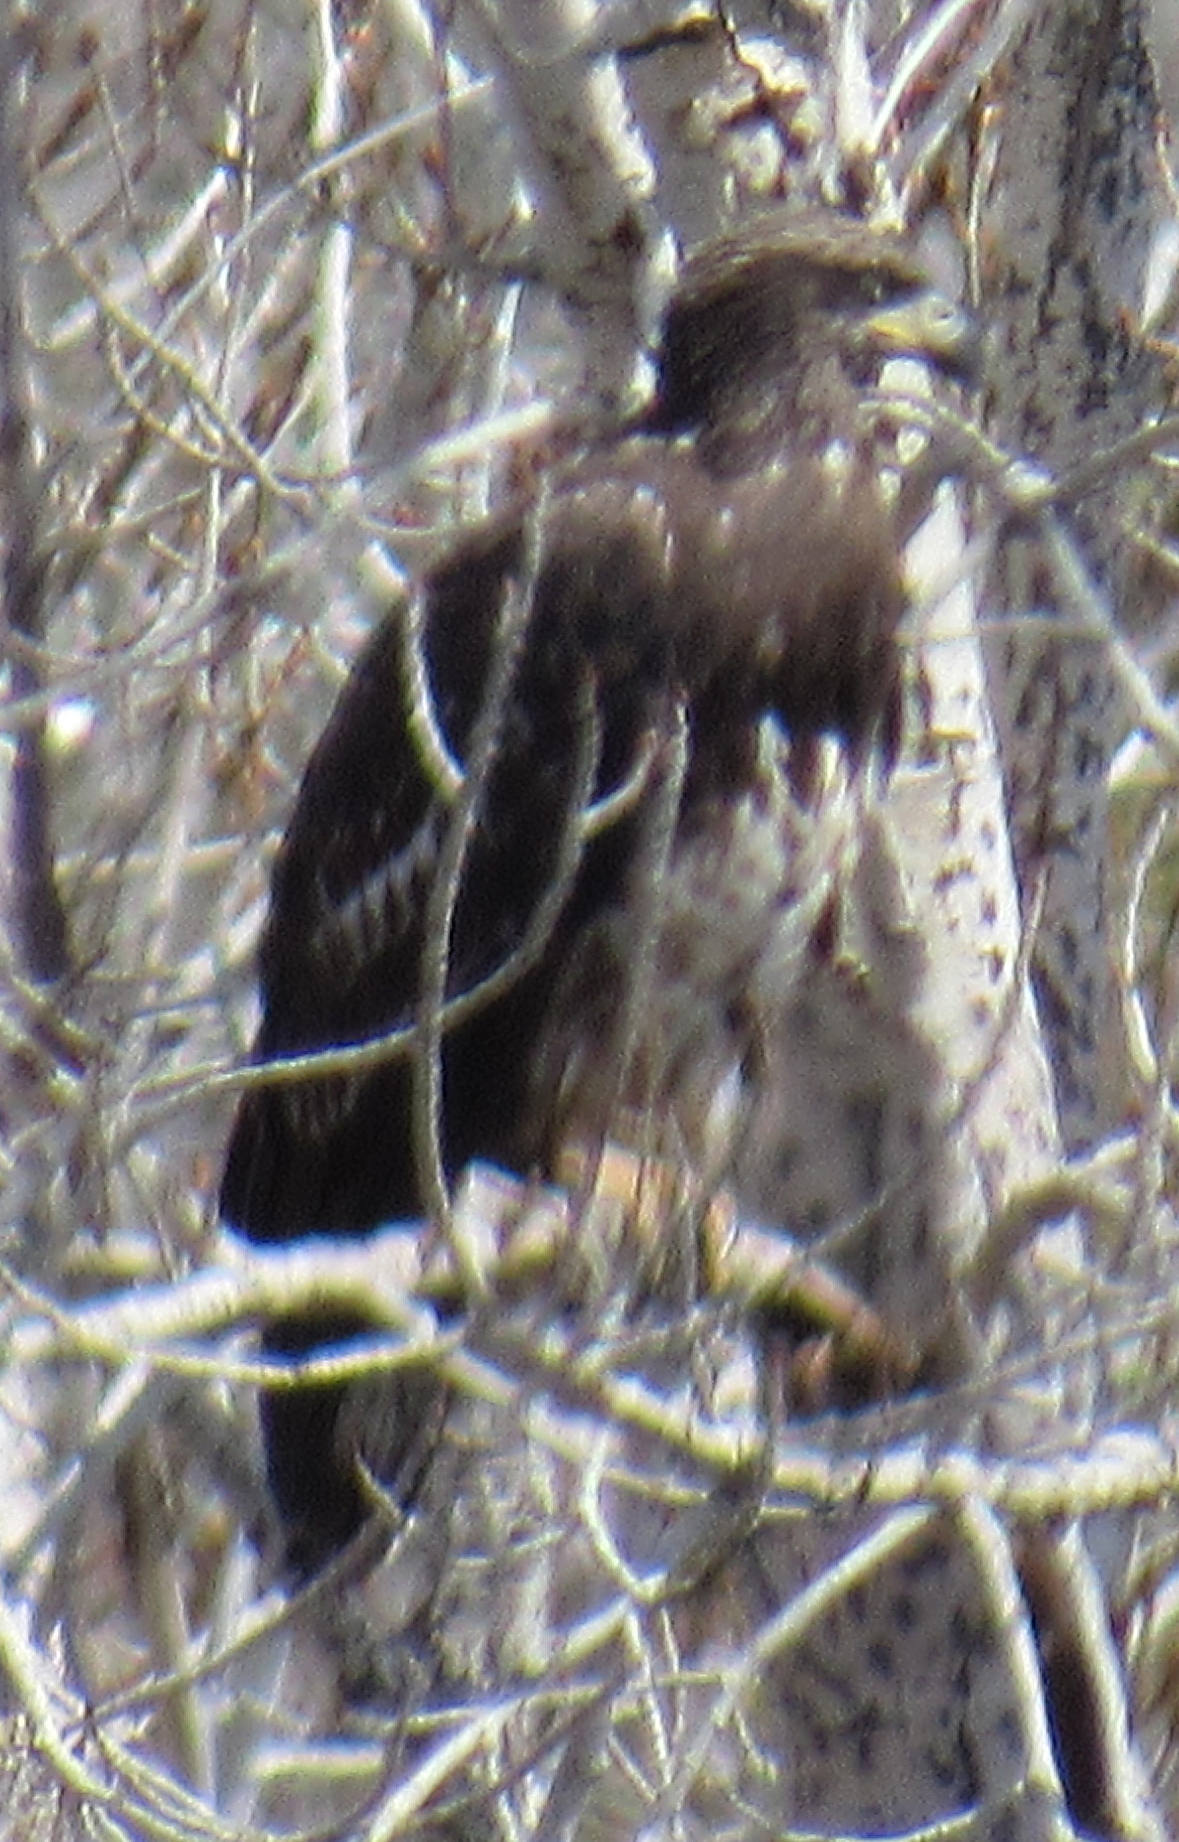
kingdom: Animalia
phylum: Chordata
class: Aves
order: Accipitriformes
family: Accipitridae
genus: Haliaeetus
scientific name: Haliaeetus leucocephalus
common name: Bald eagle
